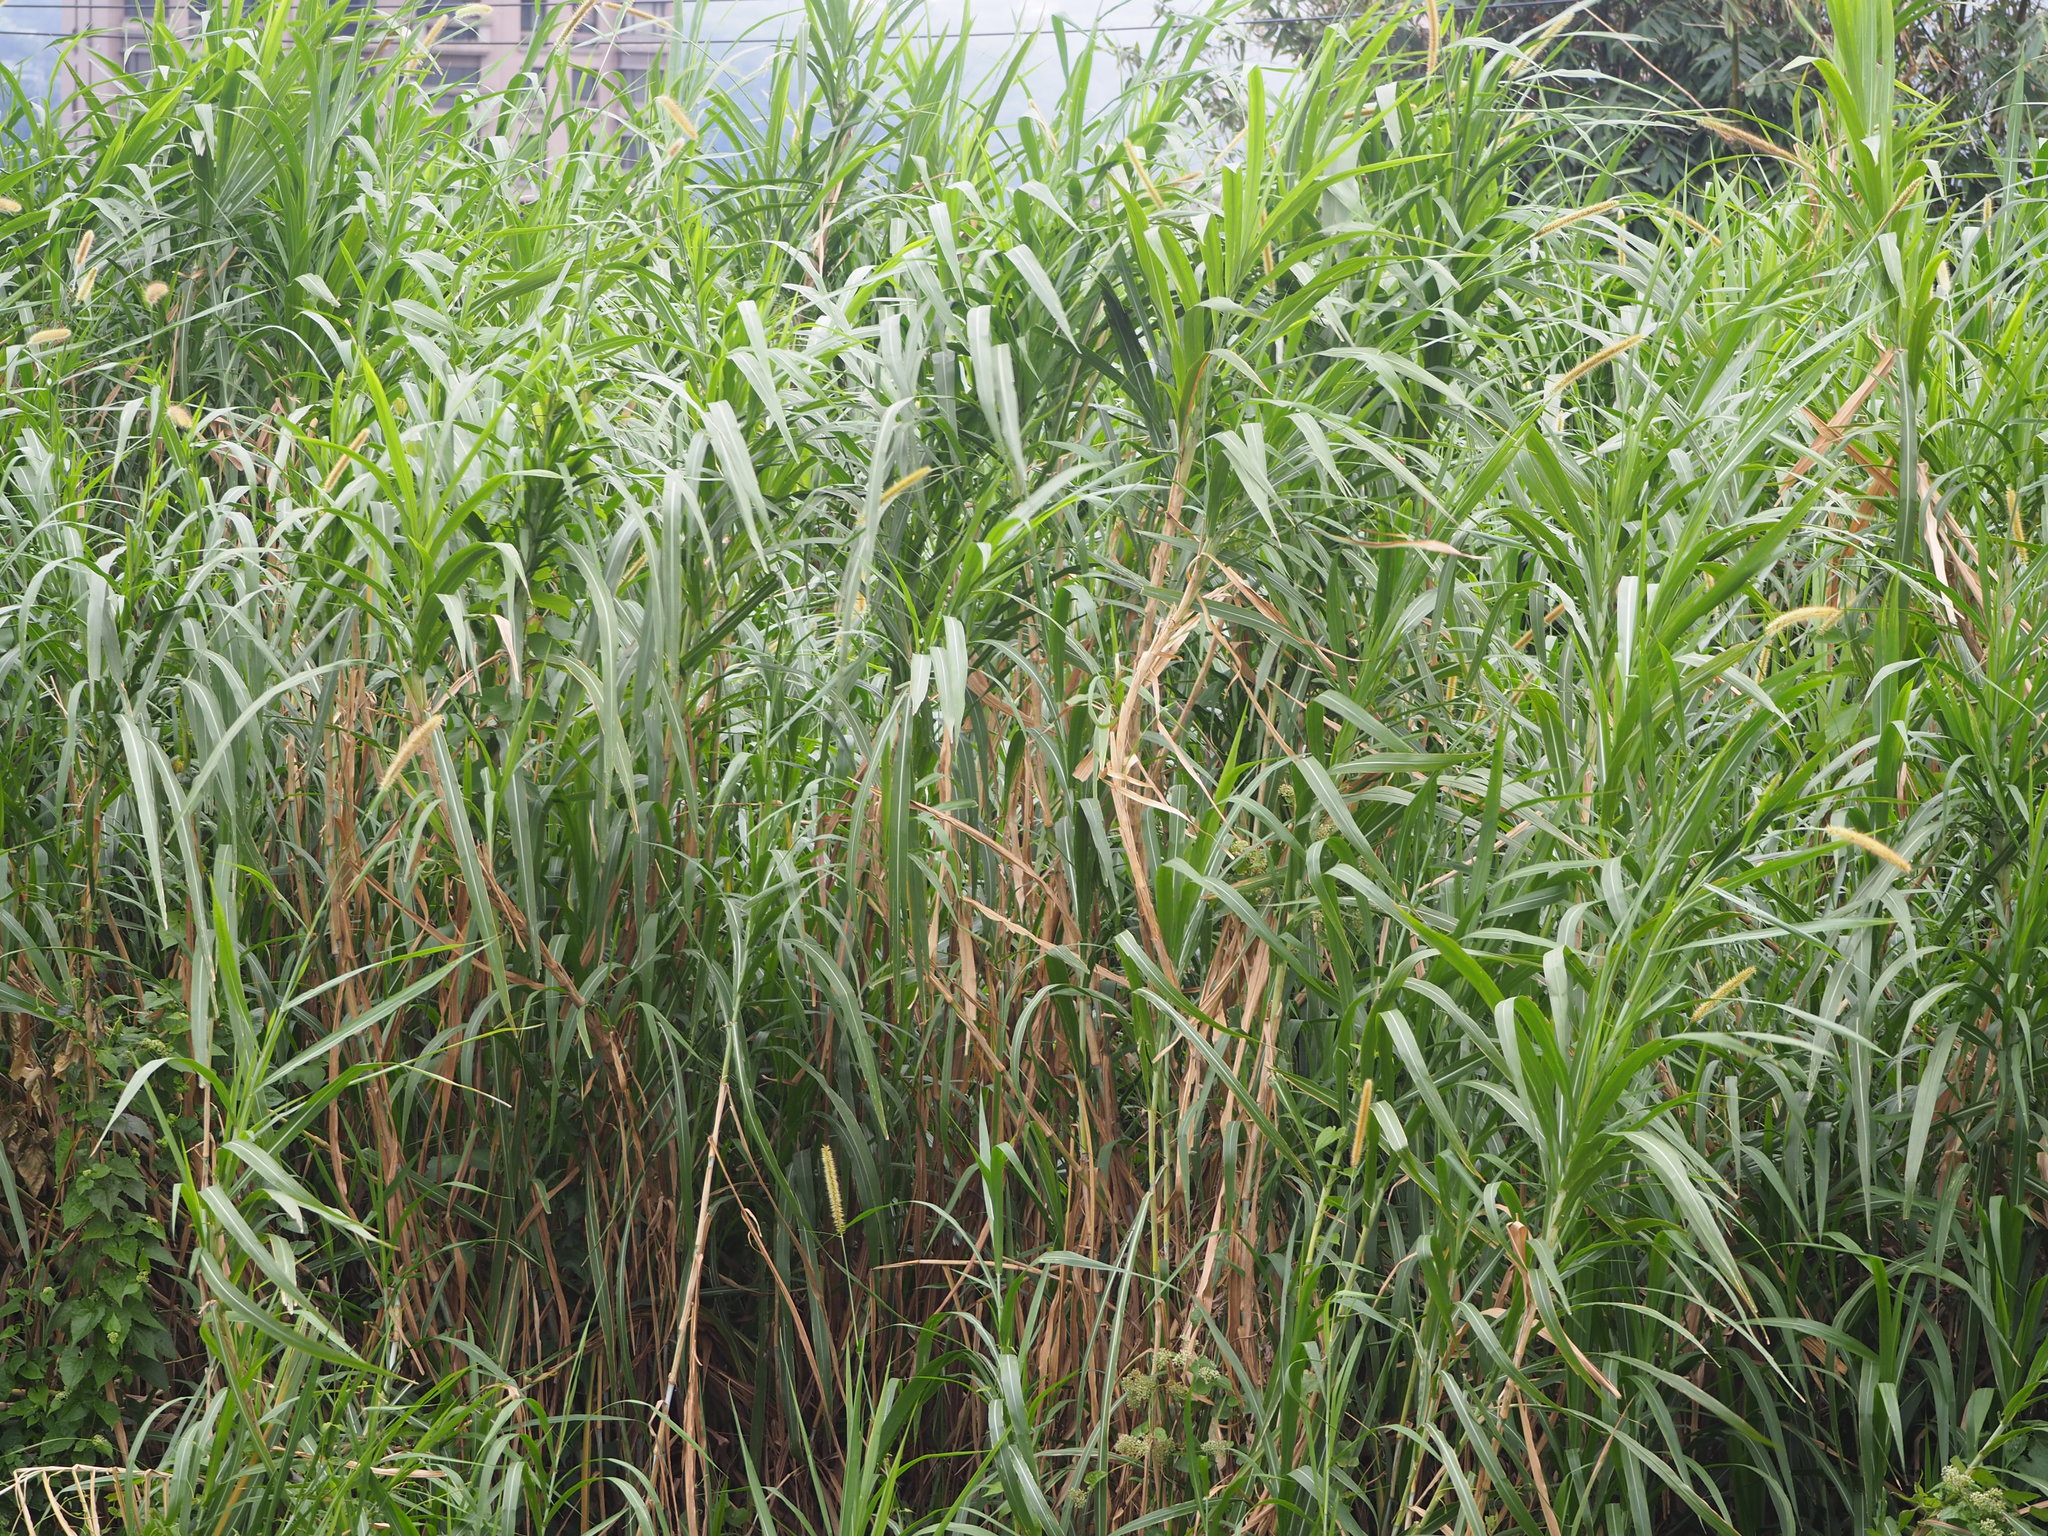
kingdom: Plantae
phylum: Tracheophyta
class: Liliopsida
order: Poales
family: Poaceae
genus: Cenchrus
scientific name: Cenchrus purpureus
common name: Elephant grass
